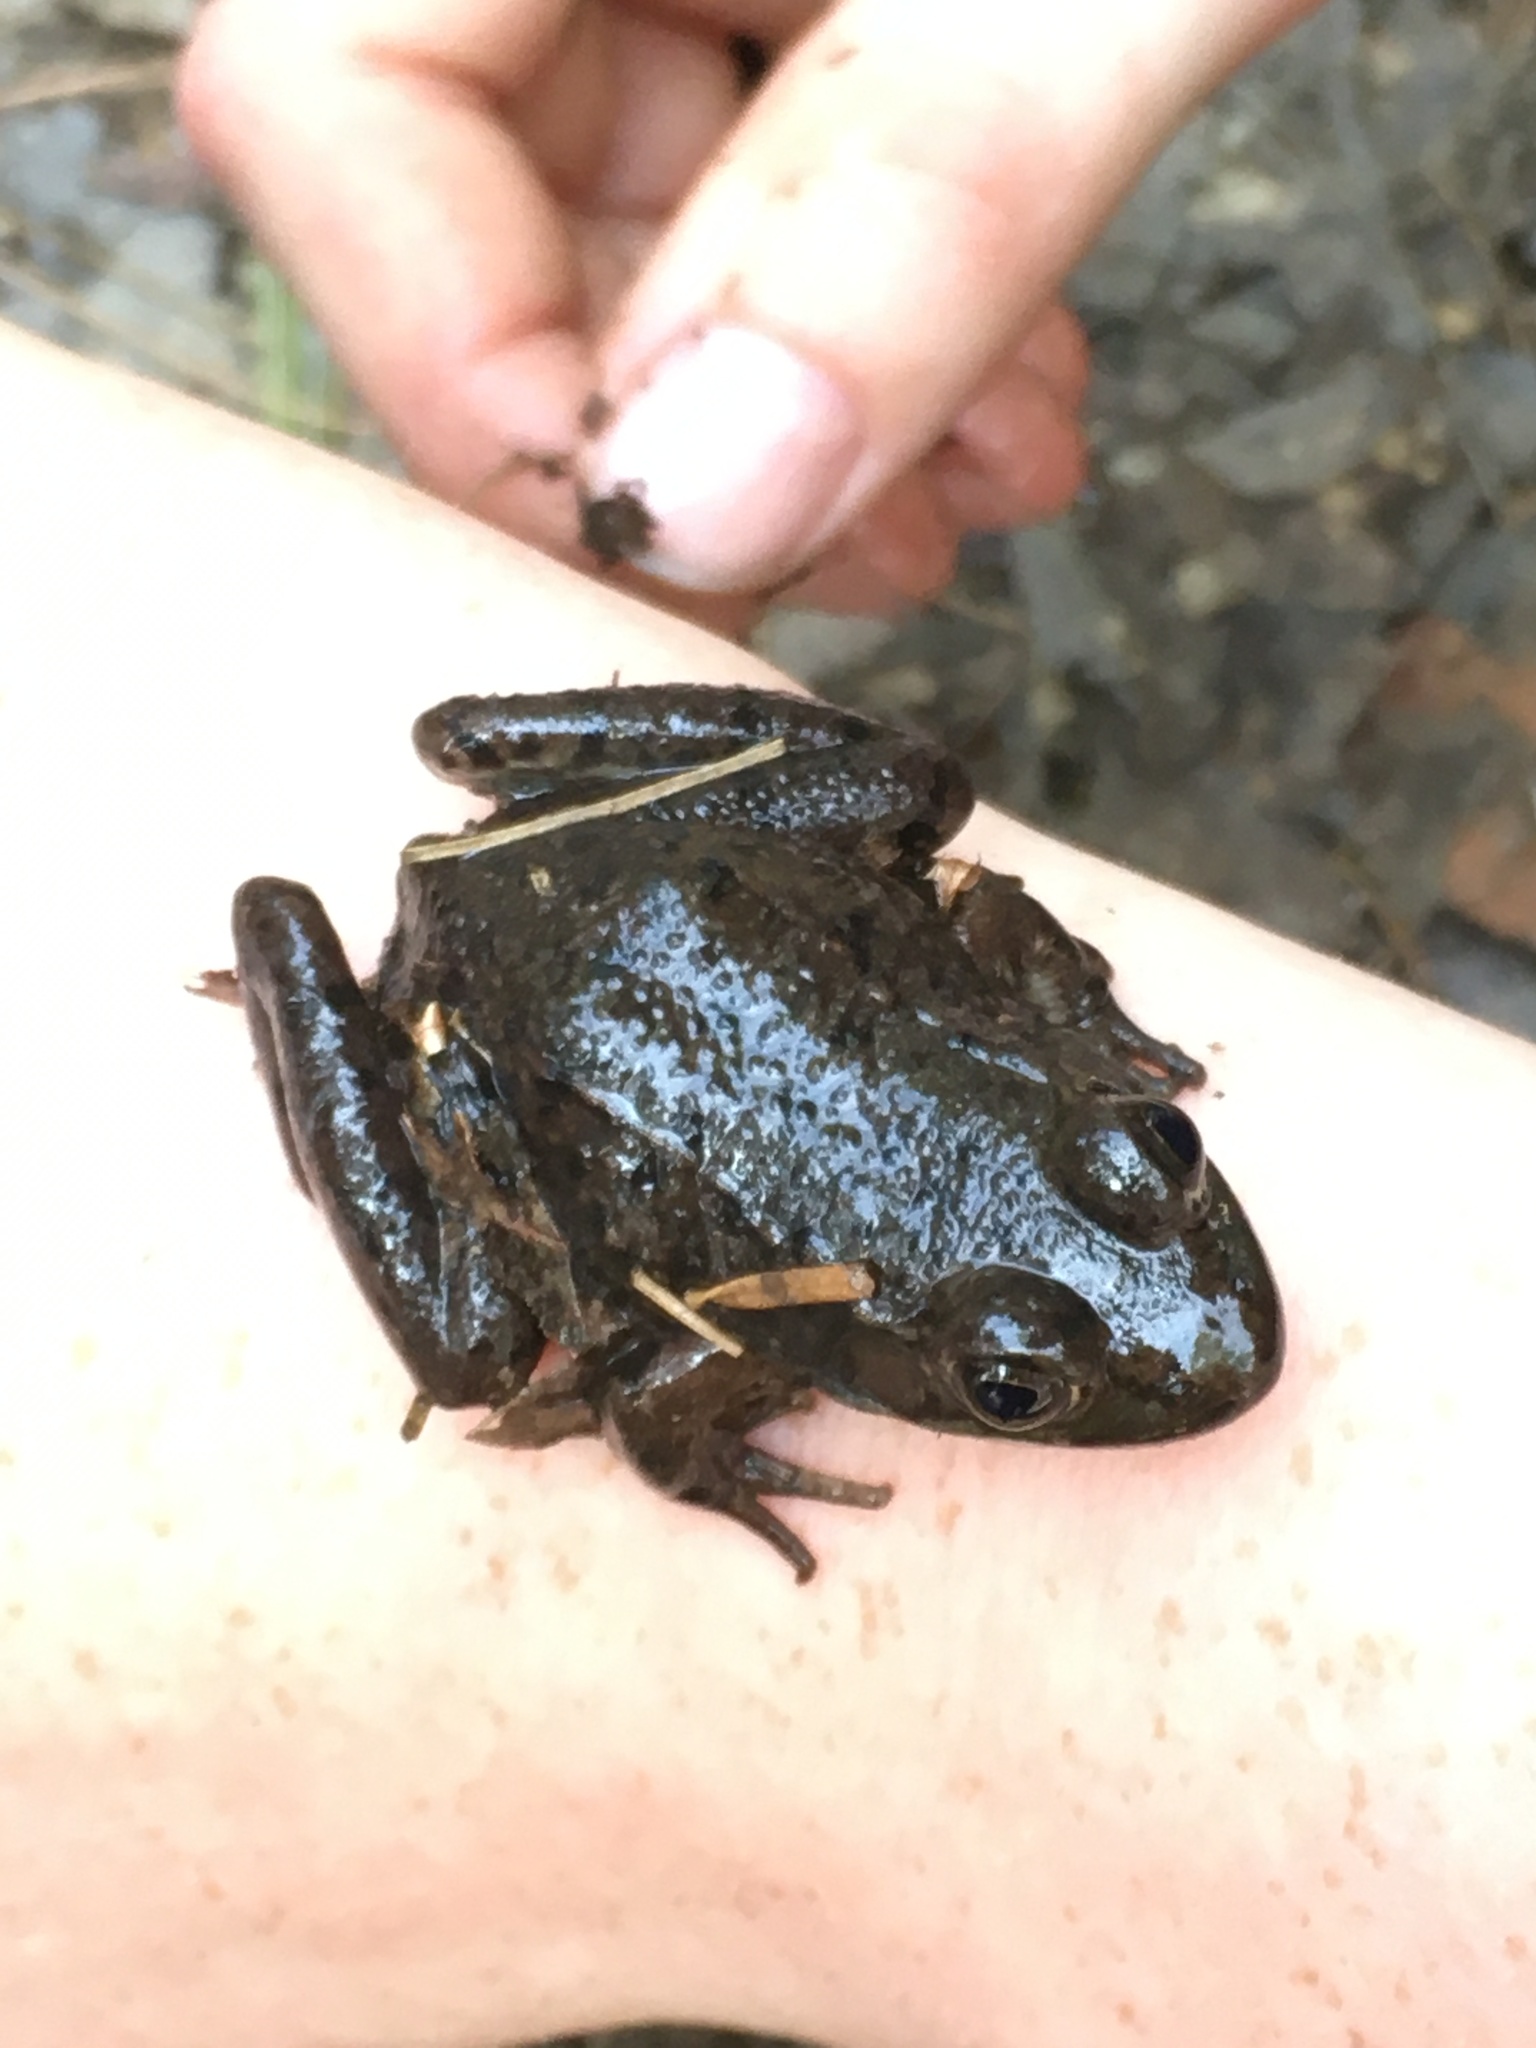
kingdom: Animalia
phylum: Chordata
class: Amphibia
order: Anura
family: Ranidae
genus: Lithobates
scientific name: Lithobates clamitans
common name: Green frog
